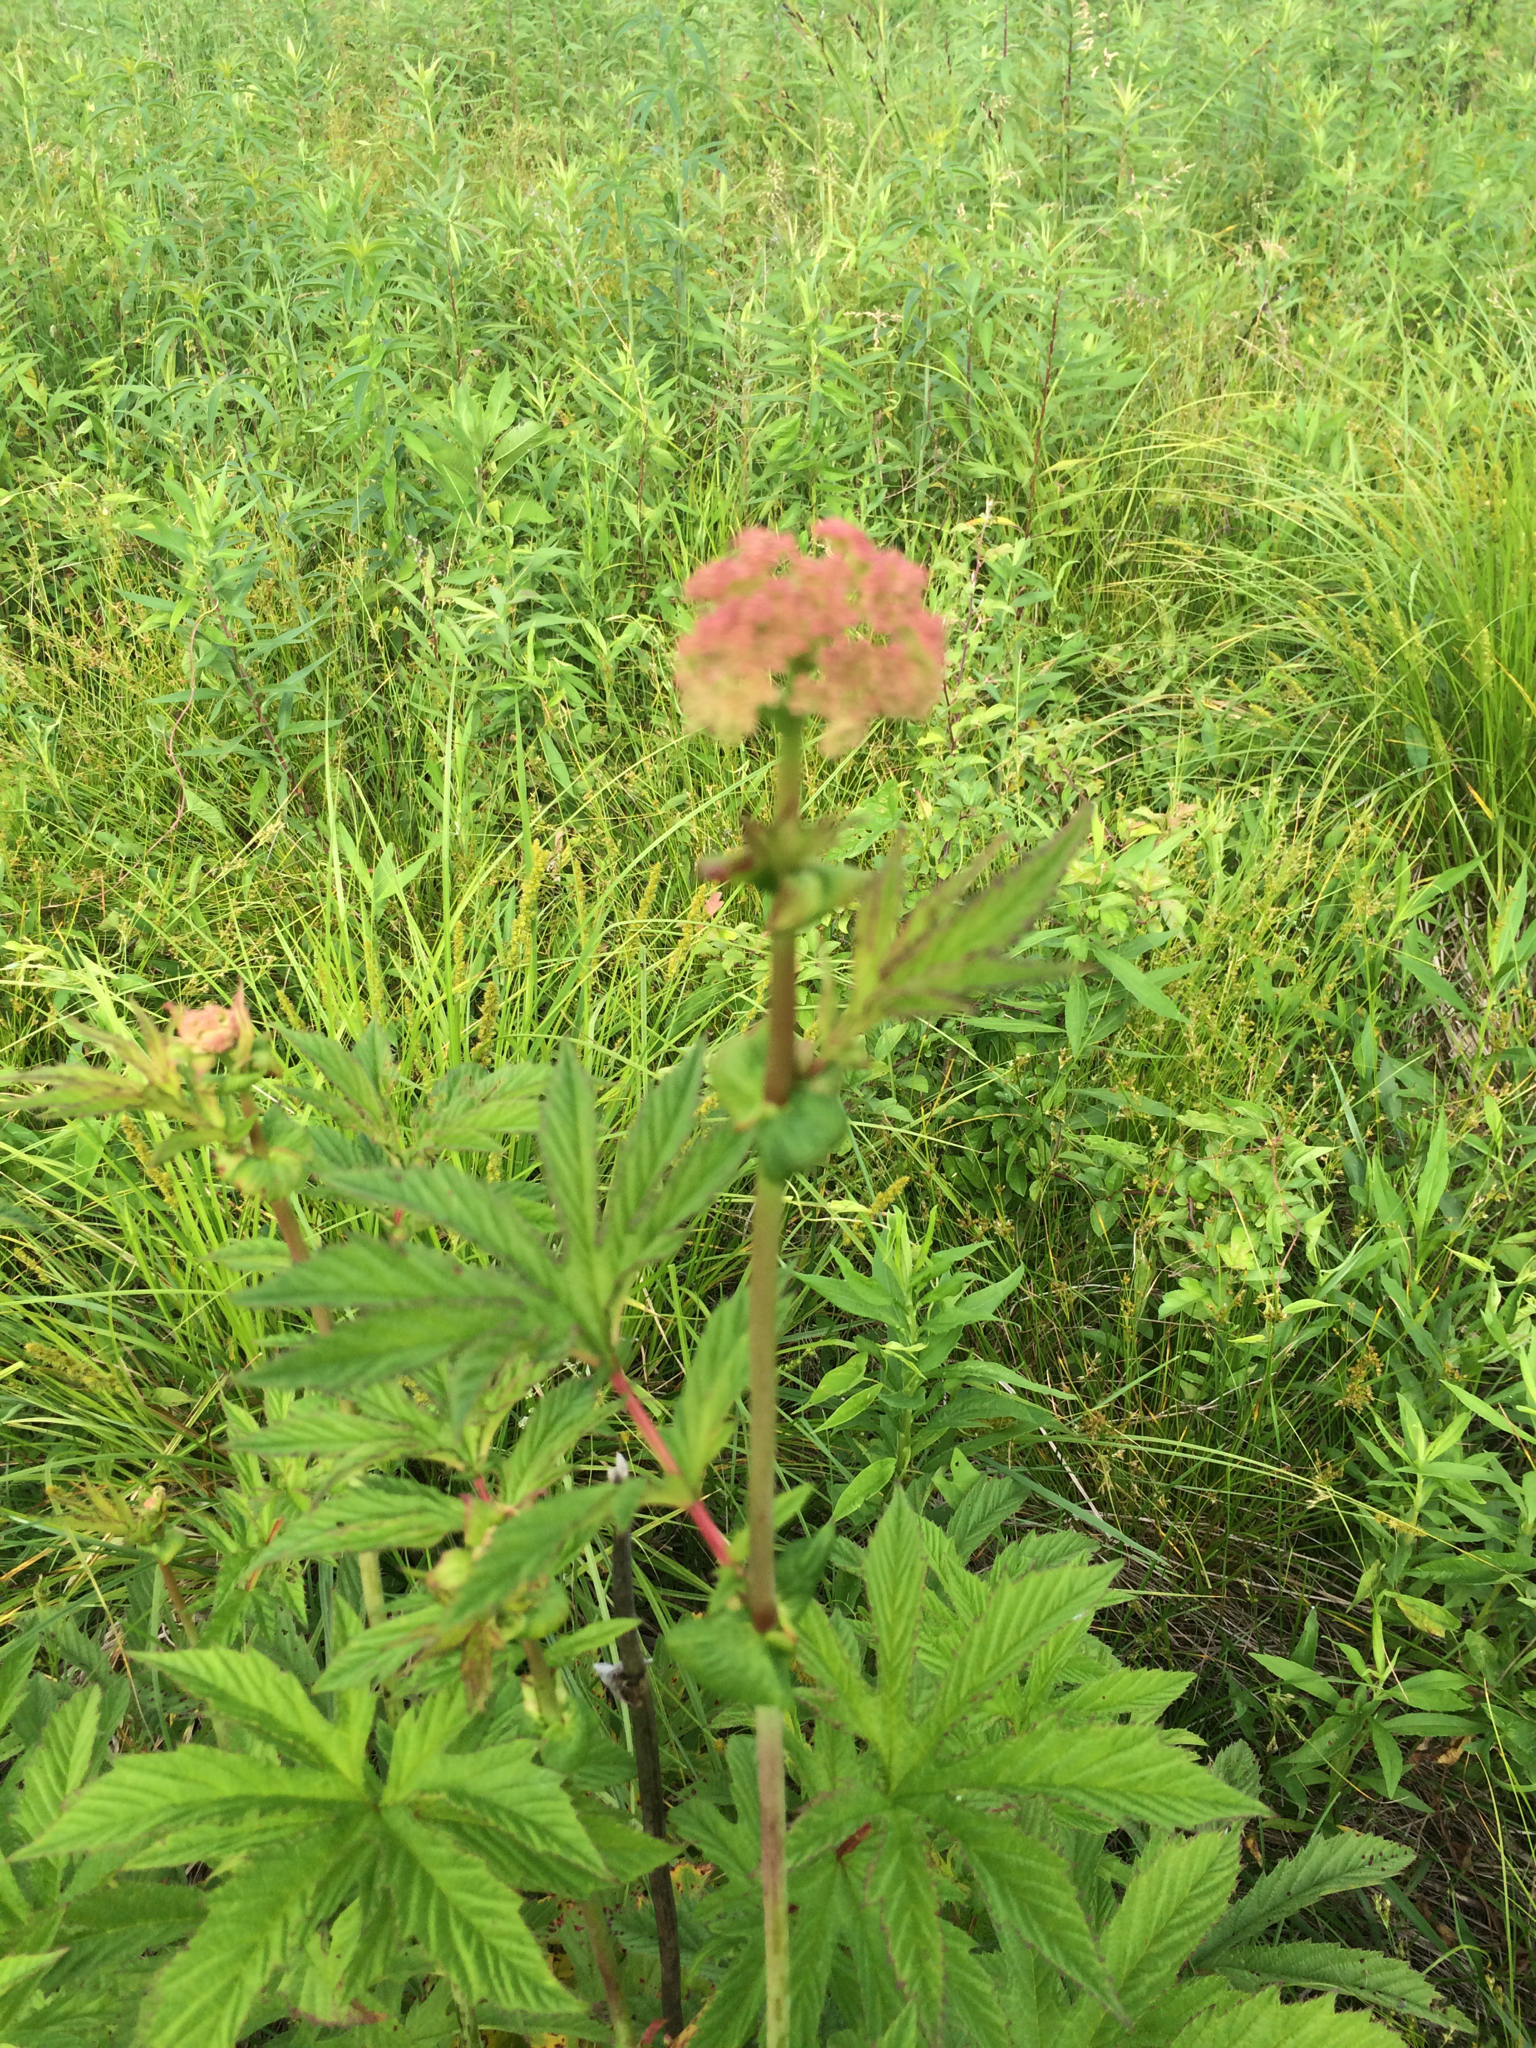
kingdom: Plantae
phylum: Tracheophyta
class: Magnoliopsida
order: Rosales
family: Rosaceae
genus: Filipendula
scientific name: Filipendula rubra
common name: Queen-of-the-prairie
